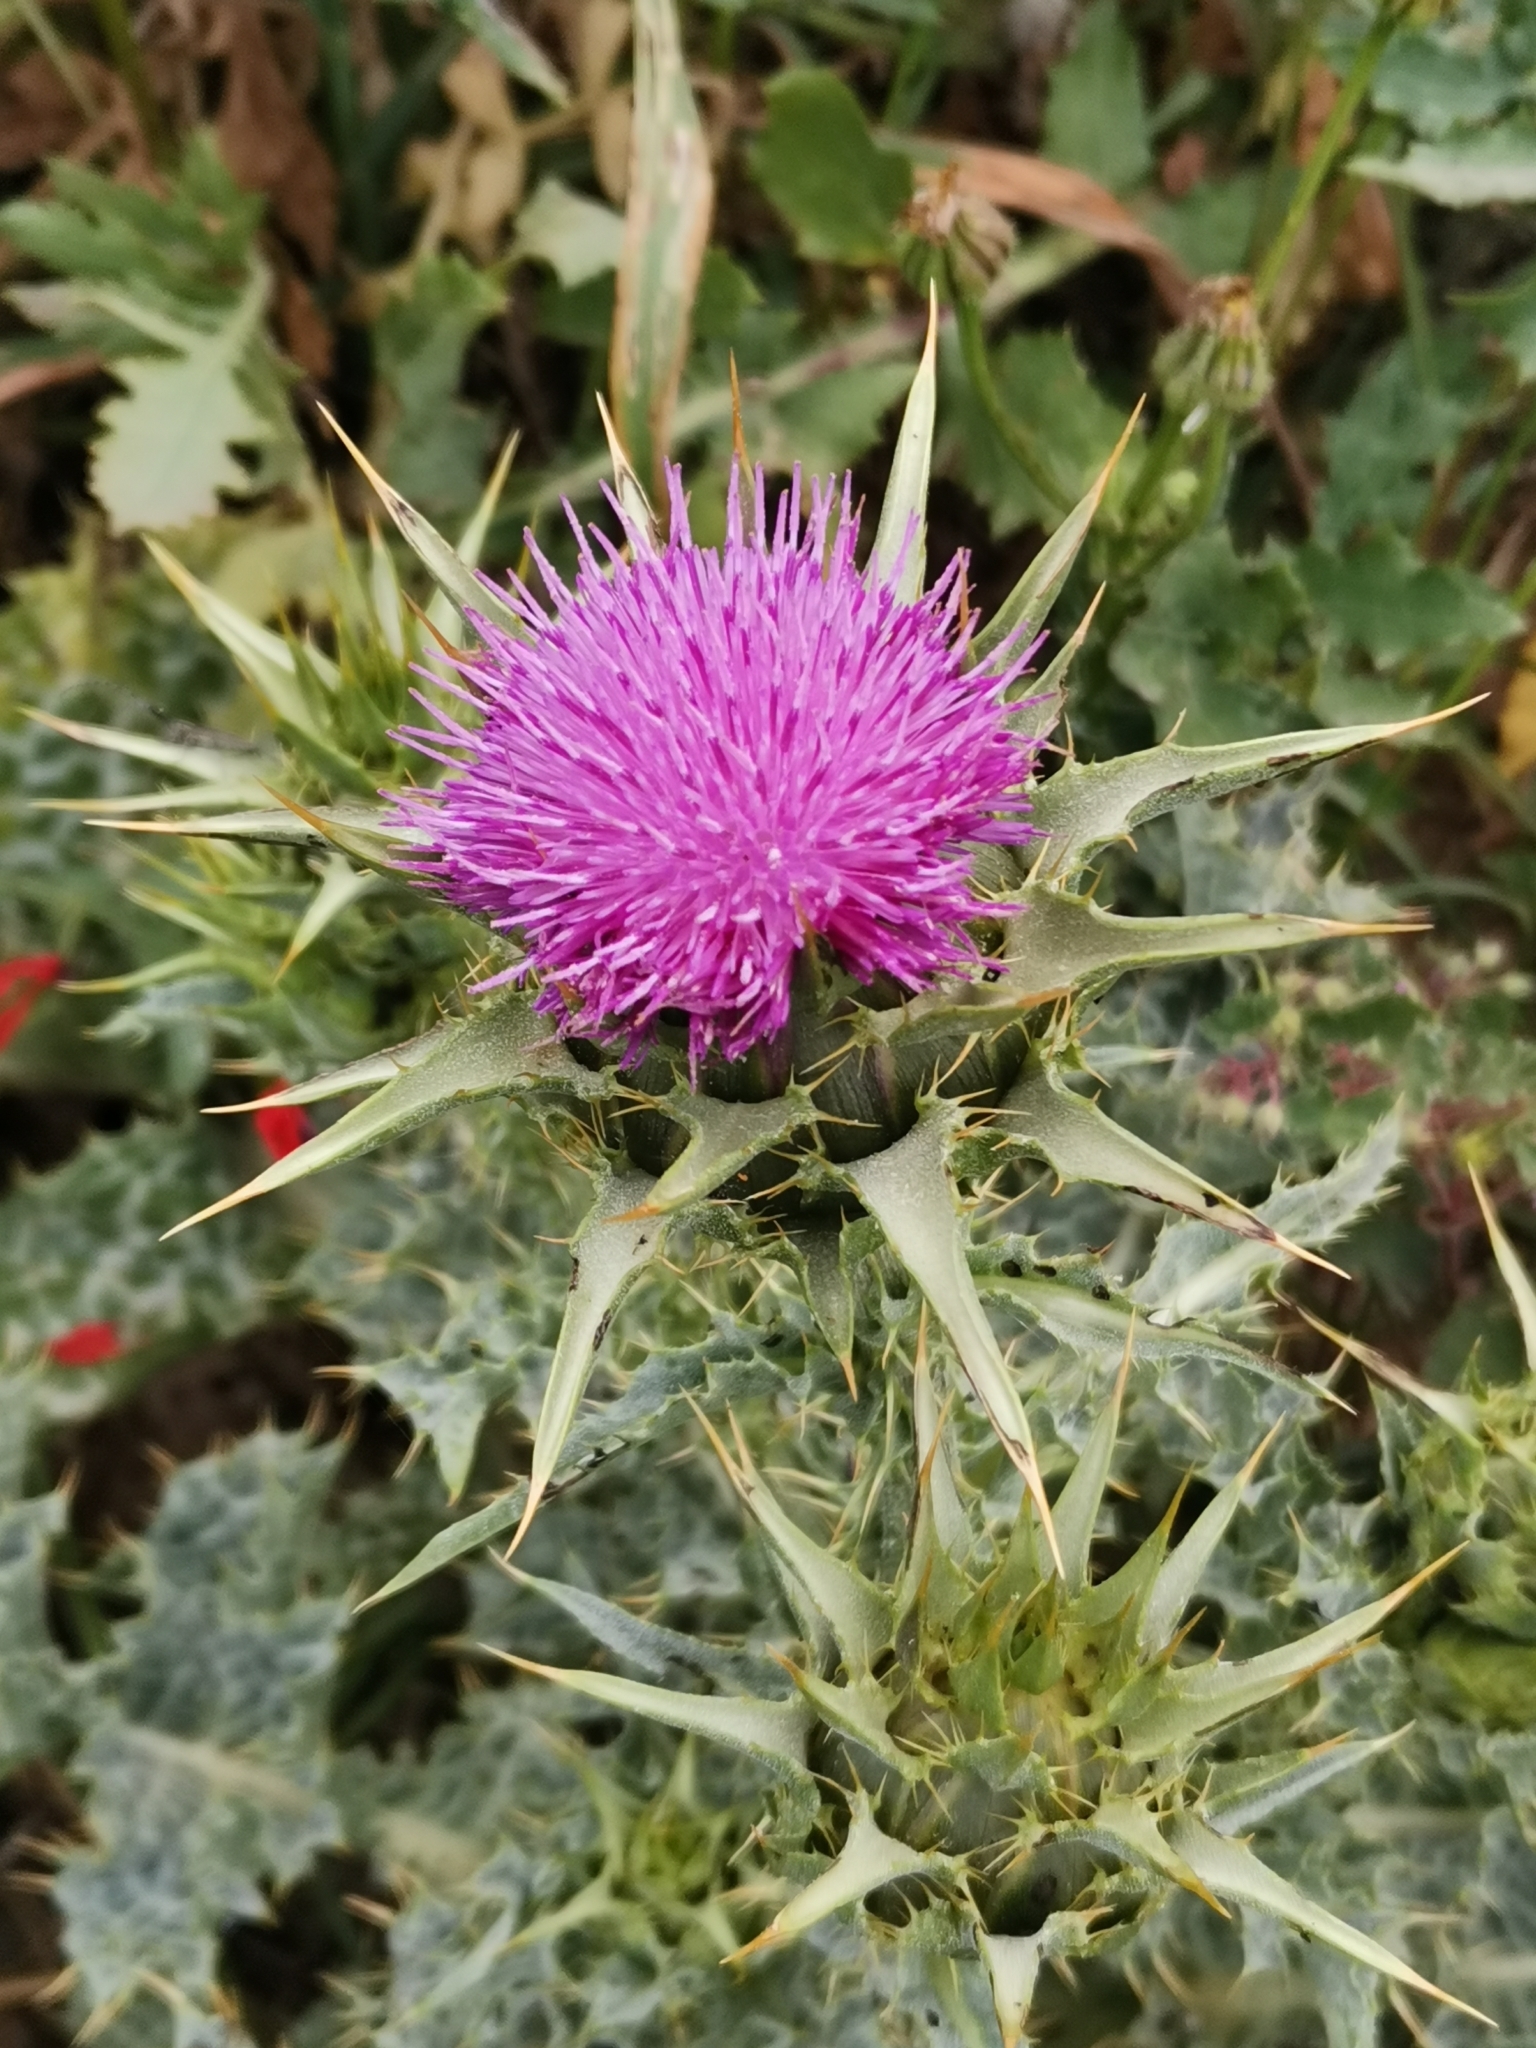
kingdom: Plantae
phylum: Tracheophyta
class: Magnoliopsida
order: Asterales
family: Asteraceae
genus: Silybum
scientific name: Silybum marianum
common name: Milk thistle
